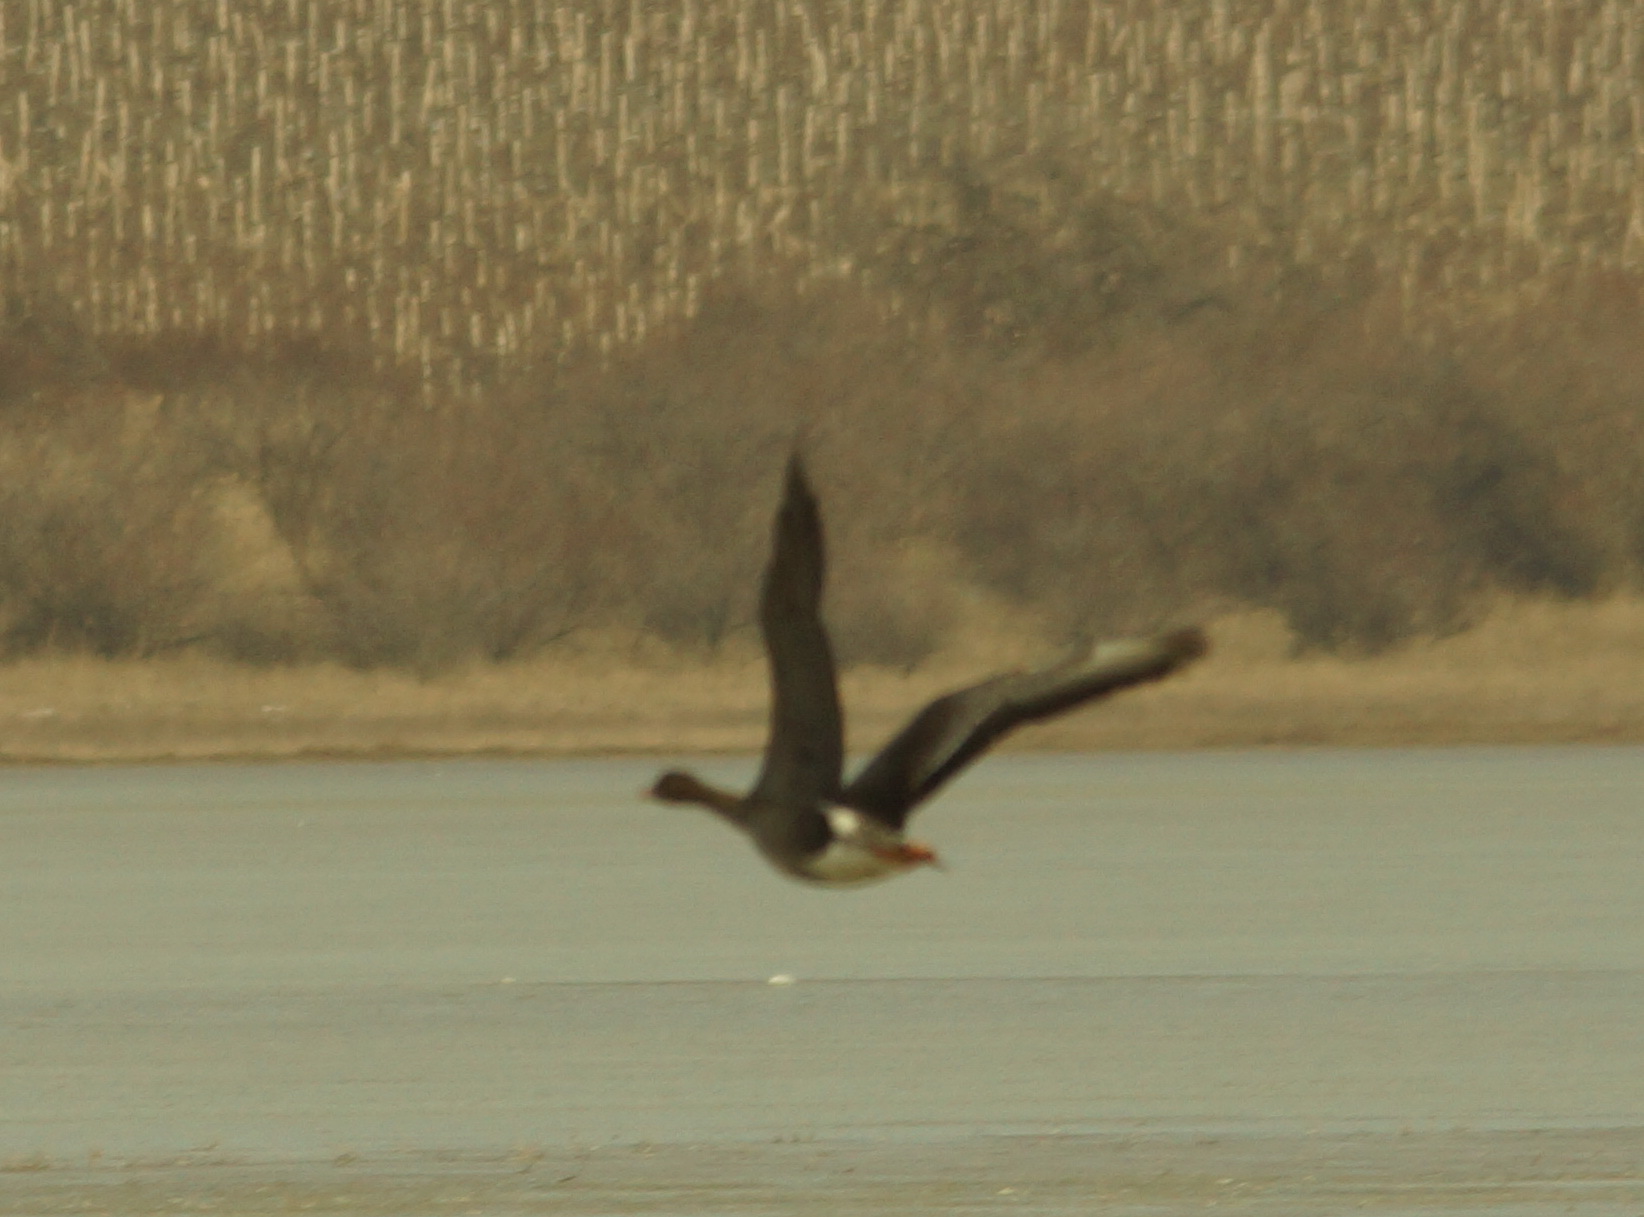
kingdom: Animalia
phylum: Chordata
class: Aves
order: Anseriformes
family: Anatidae
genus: Anser
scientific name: Anser albifrons
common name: Greater white-fronted goose
